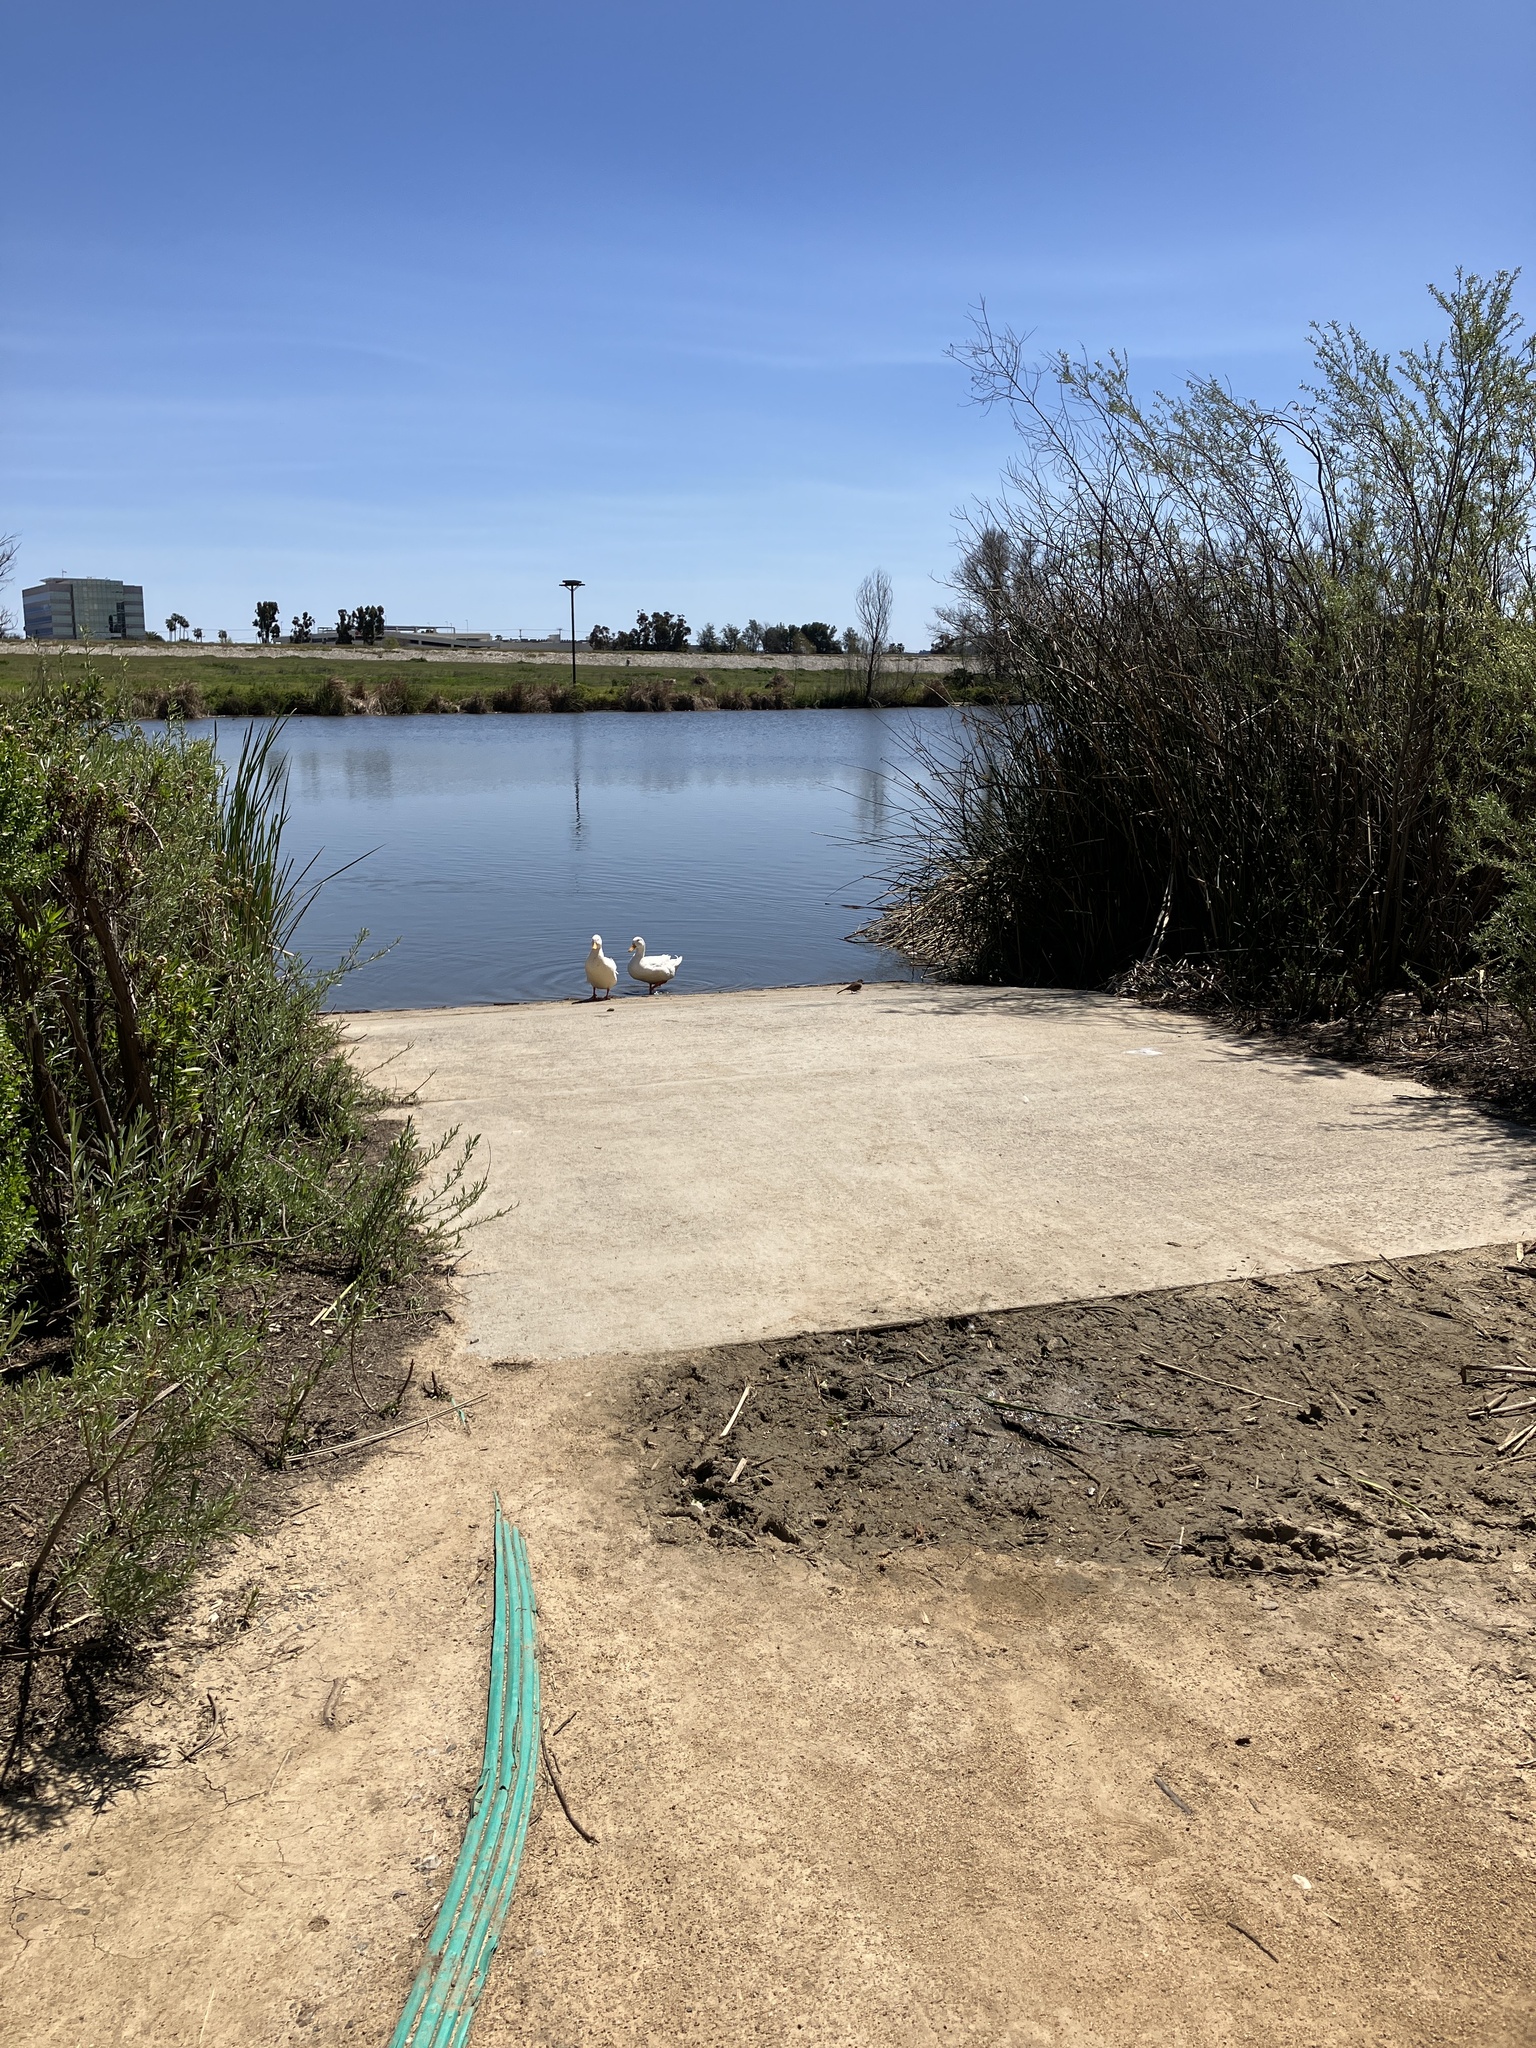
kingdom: Animalia
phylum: Chordata
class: Aves
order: Anseriformes
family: Anatidae
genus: Anas
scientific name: Anas platyrhynchos
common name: Mallard
